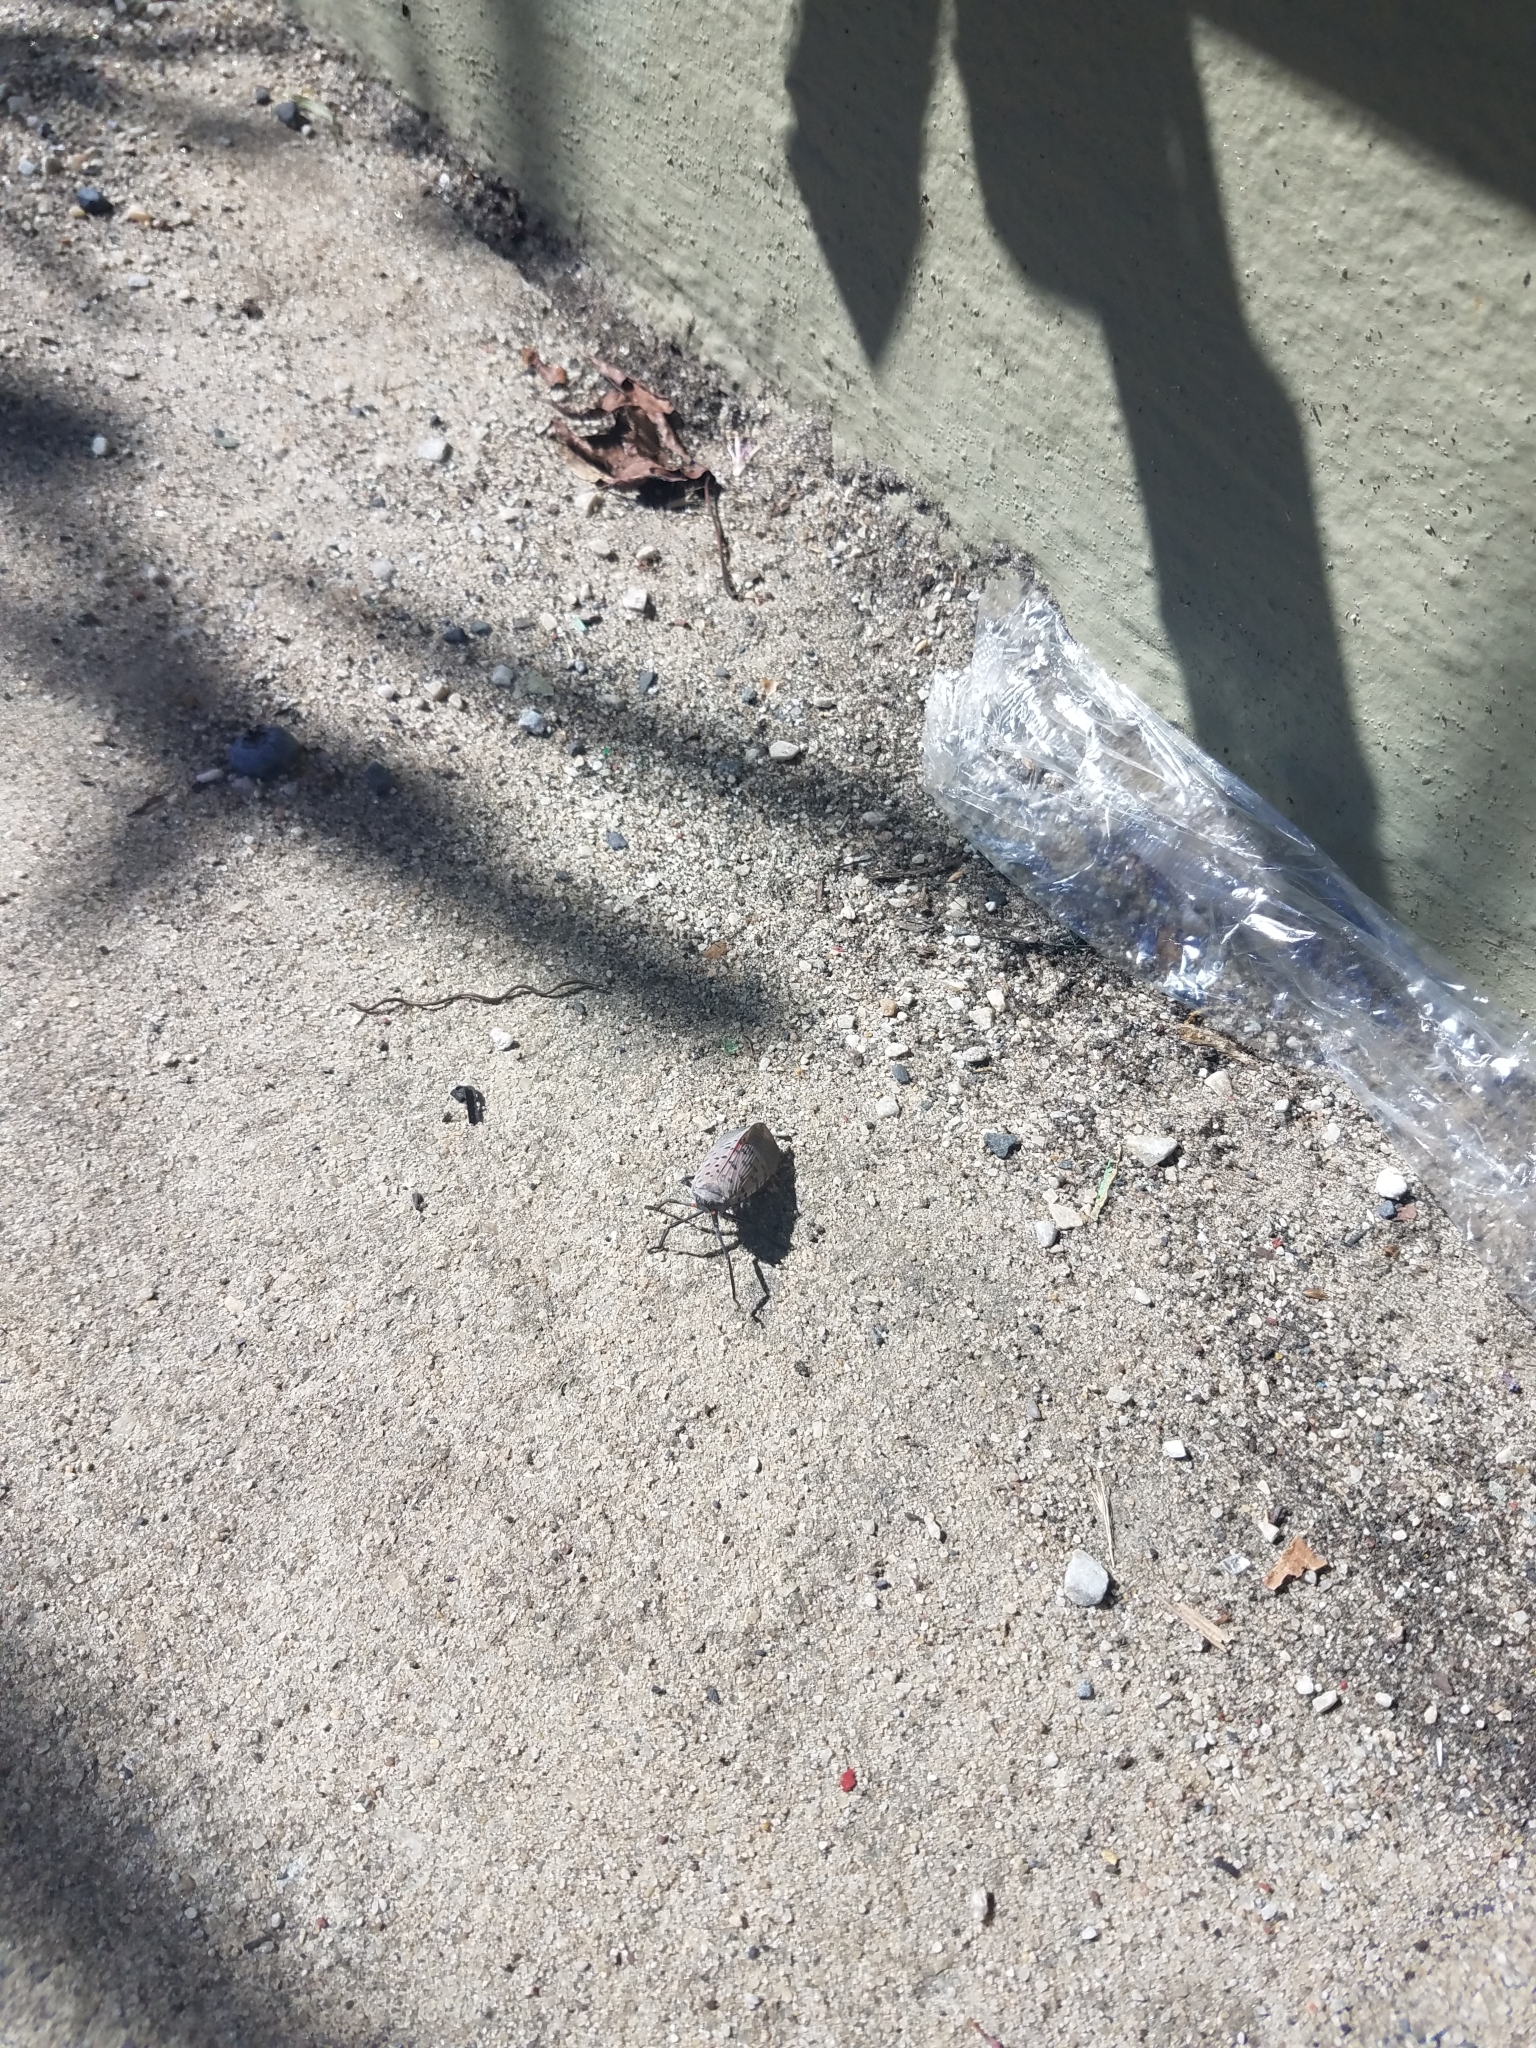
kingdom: Animalia
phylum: Arthropoda
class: Insecta
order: Hemiptera
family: Fulgoridae
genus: Lycorma
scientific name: Lycorma delicatula
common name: Spotted lanternfly
